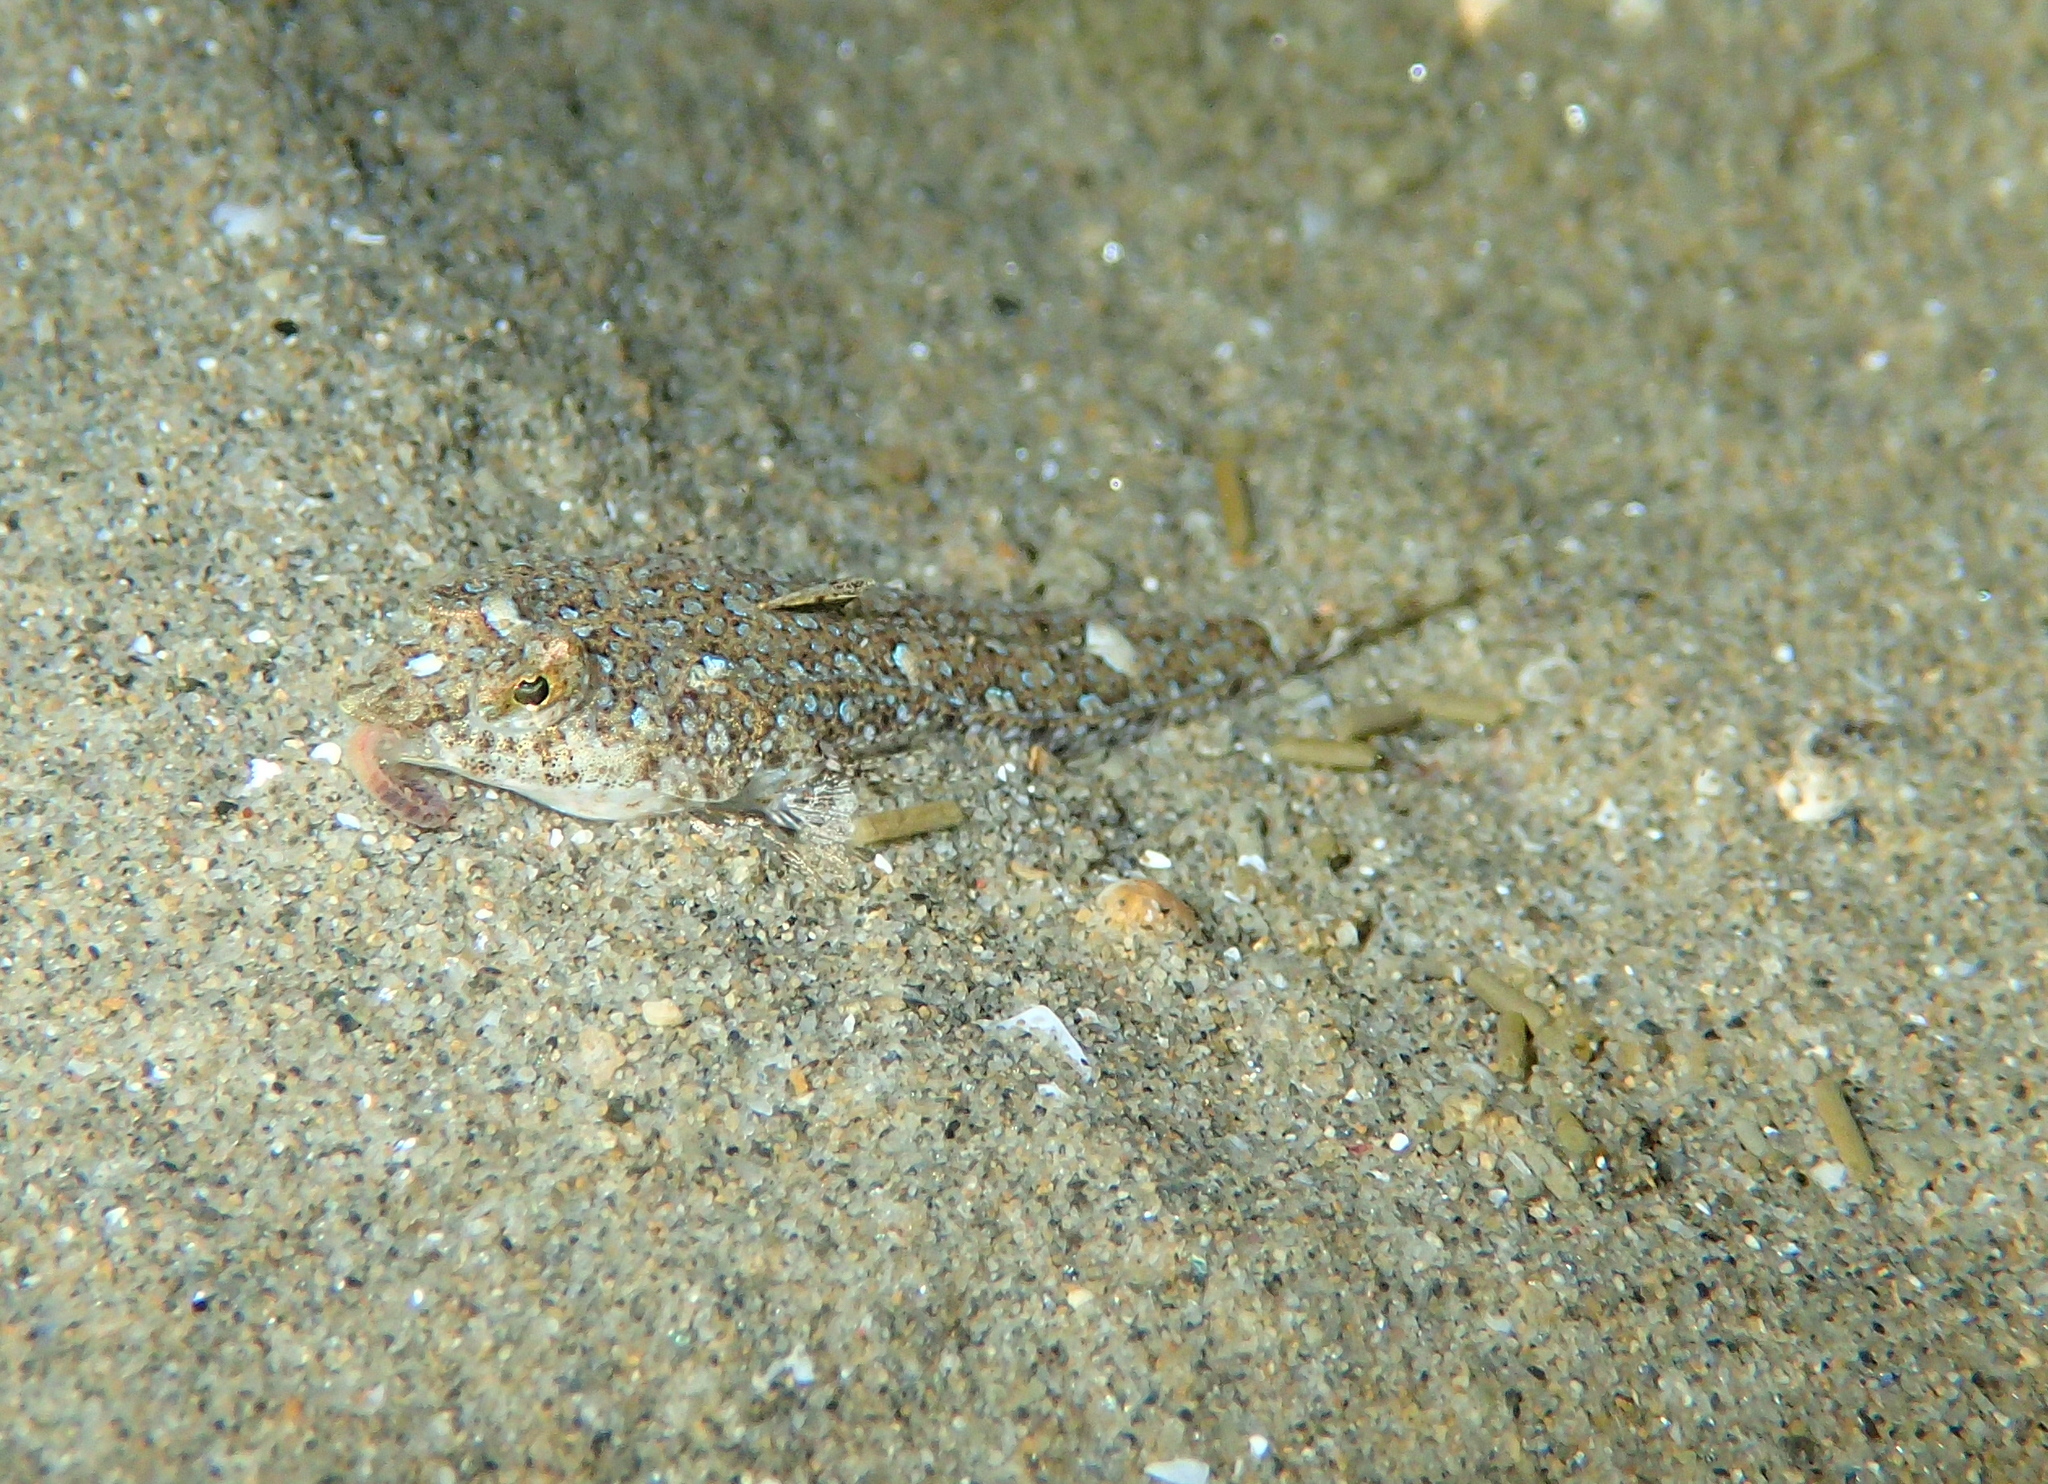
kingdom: Animalia
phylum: Chordata
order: Perciformes
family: Callionymidae
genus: Callionymus
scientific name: Callionymus risso
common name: Risso’s dragonet
